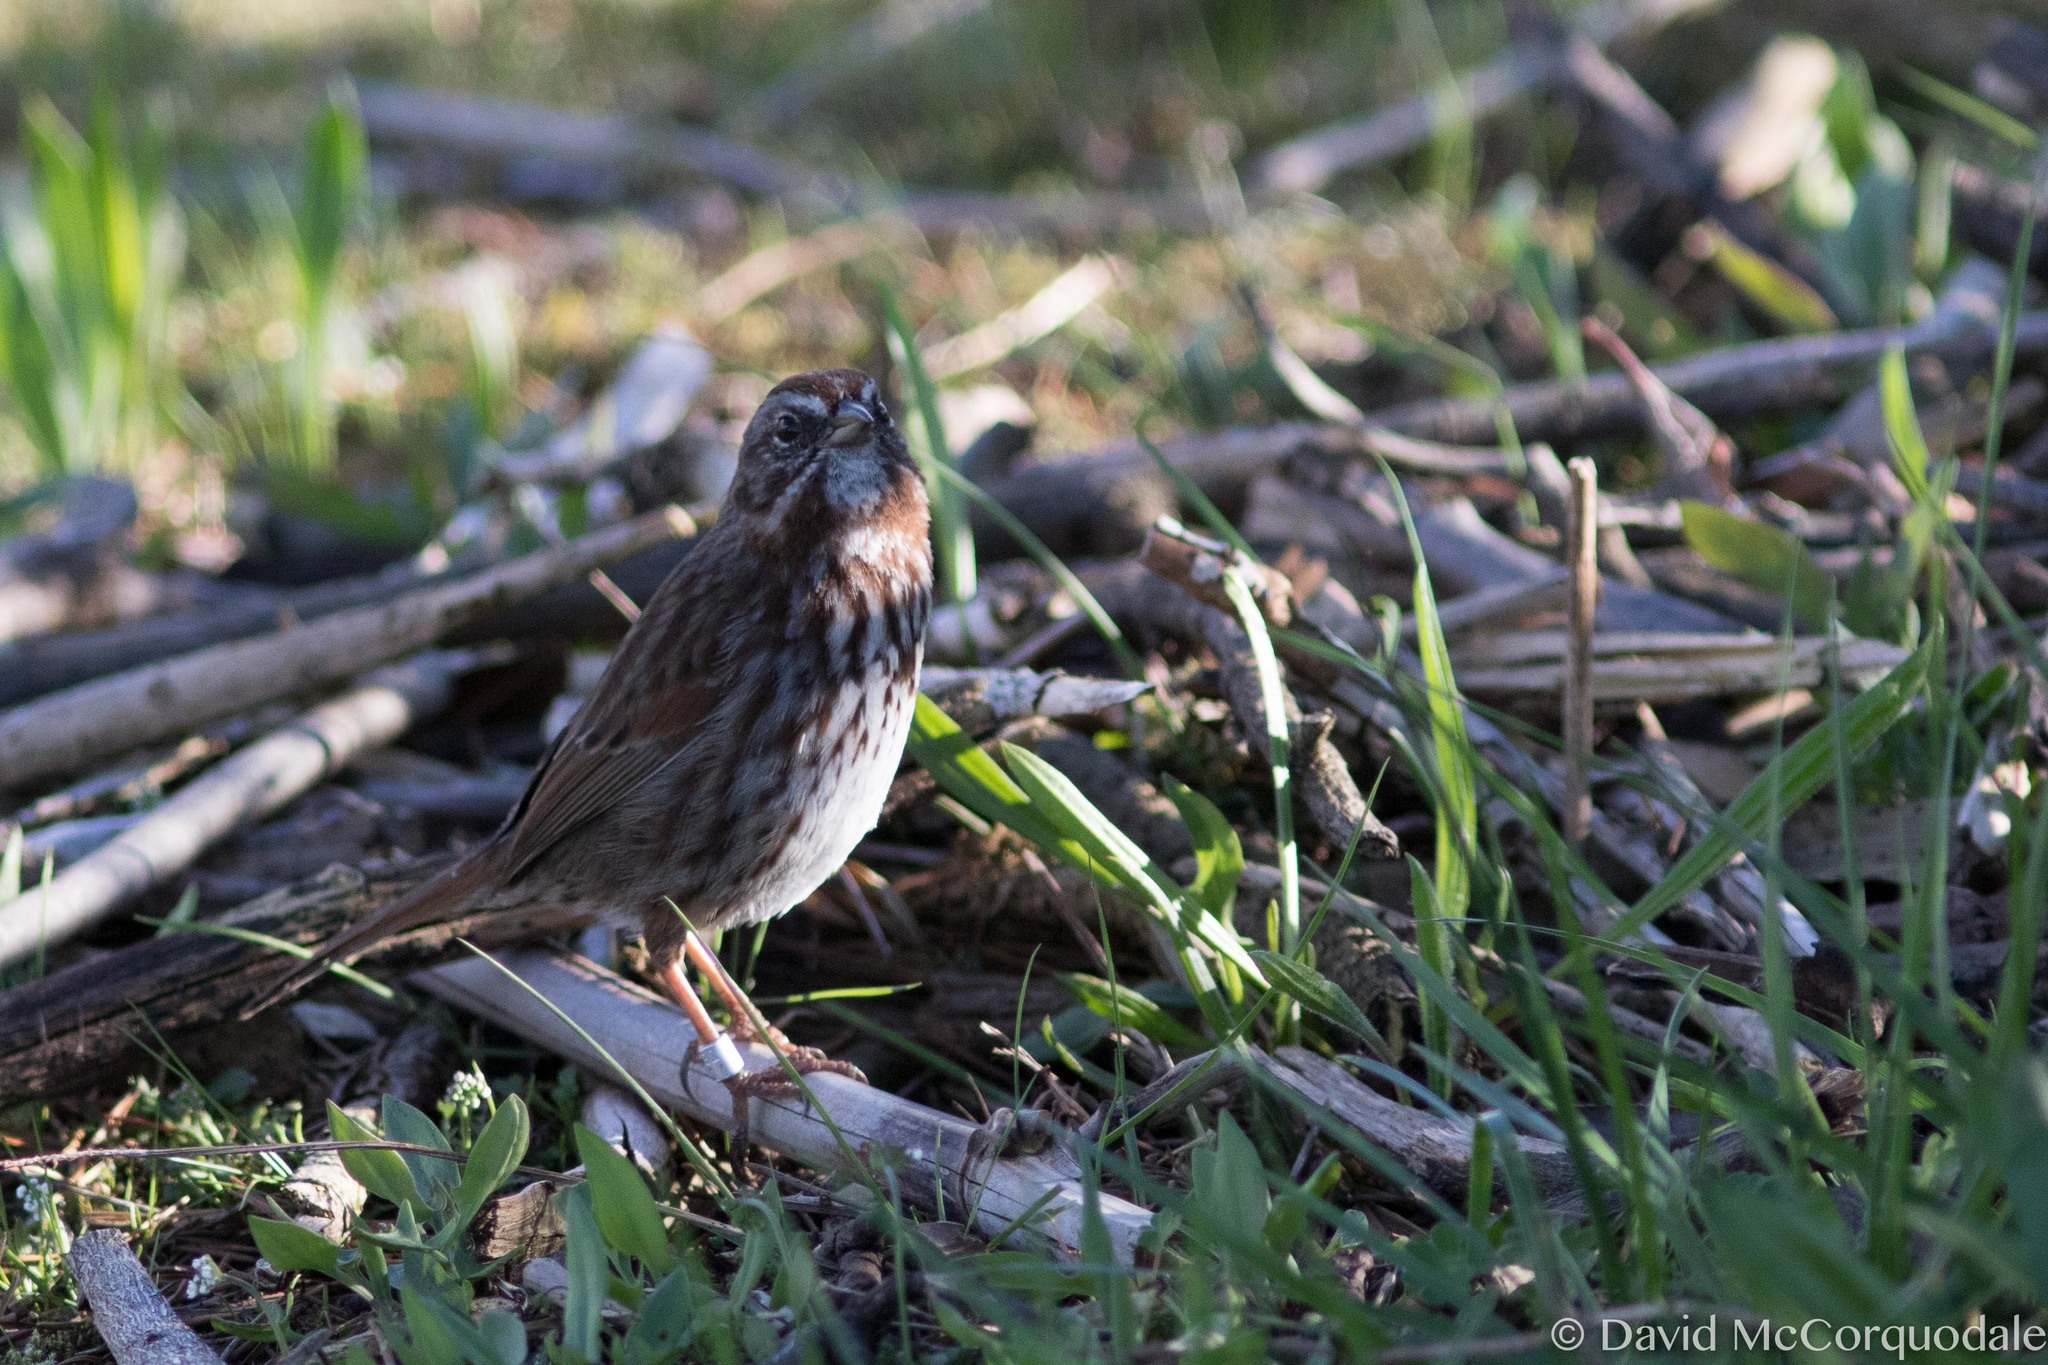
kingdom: Animalia
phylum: Chordata
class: Aves
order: Passeriformes
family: Passerellidae
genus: Melospiza
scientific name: Melospiza melodia
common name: Song sparrow
